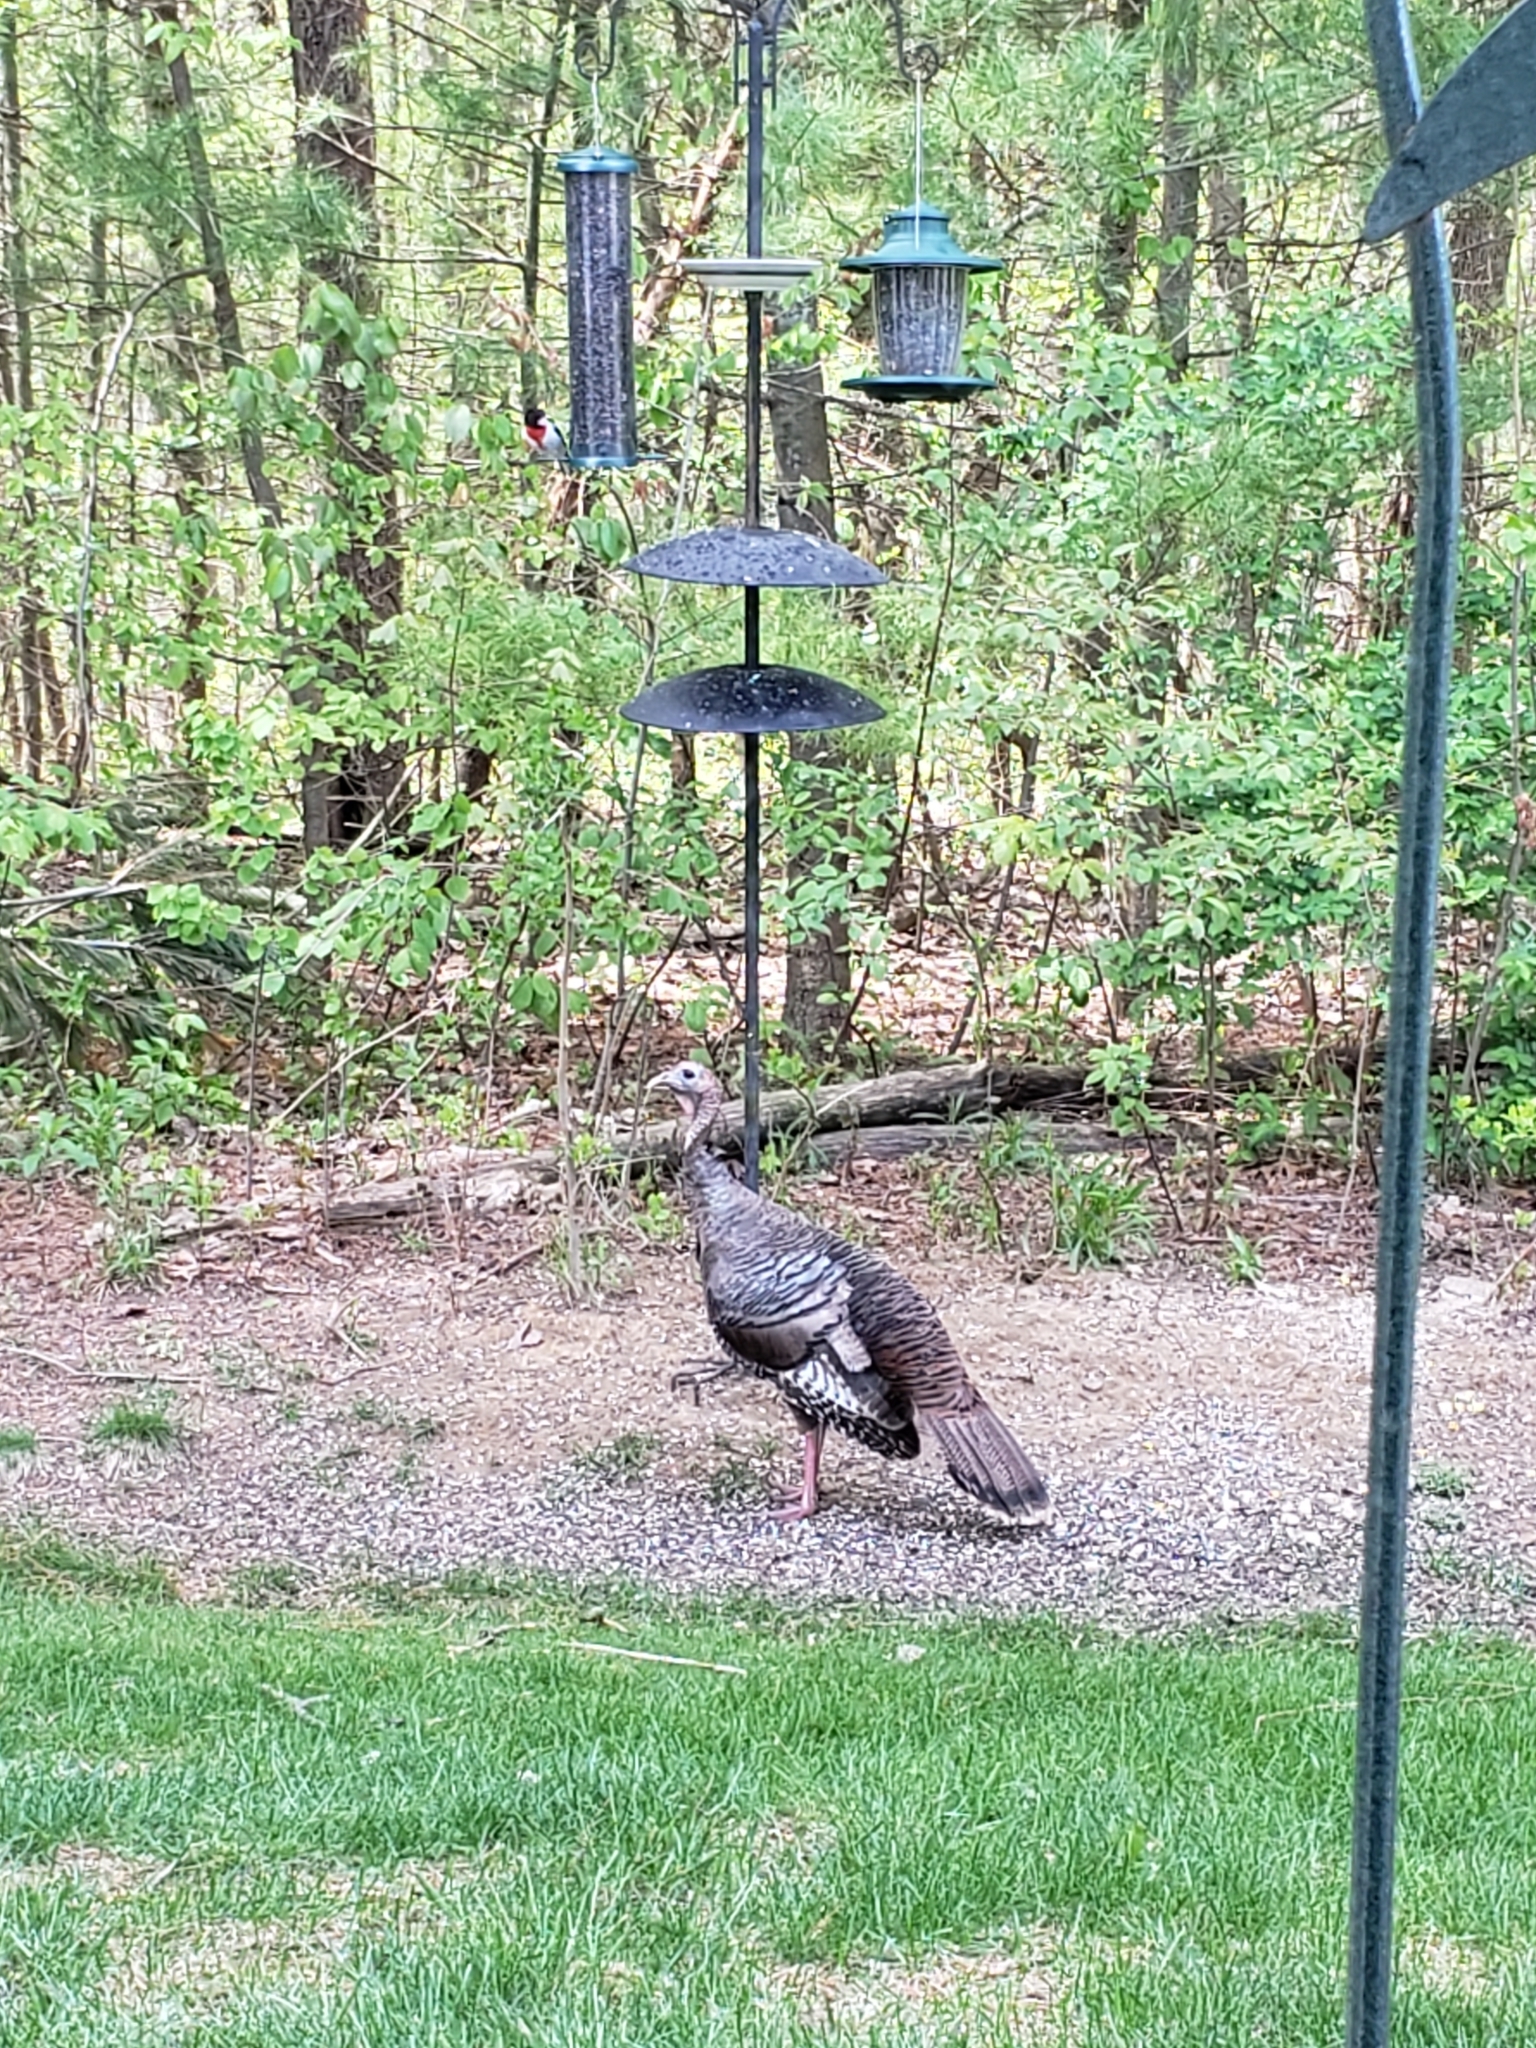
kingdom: Animalia
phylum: Chordata
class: Aves
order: Galliformes
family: Phasianidae
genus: Meleagris
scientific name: Meleagris gallopavo
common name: Wild turkey
